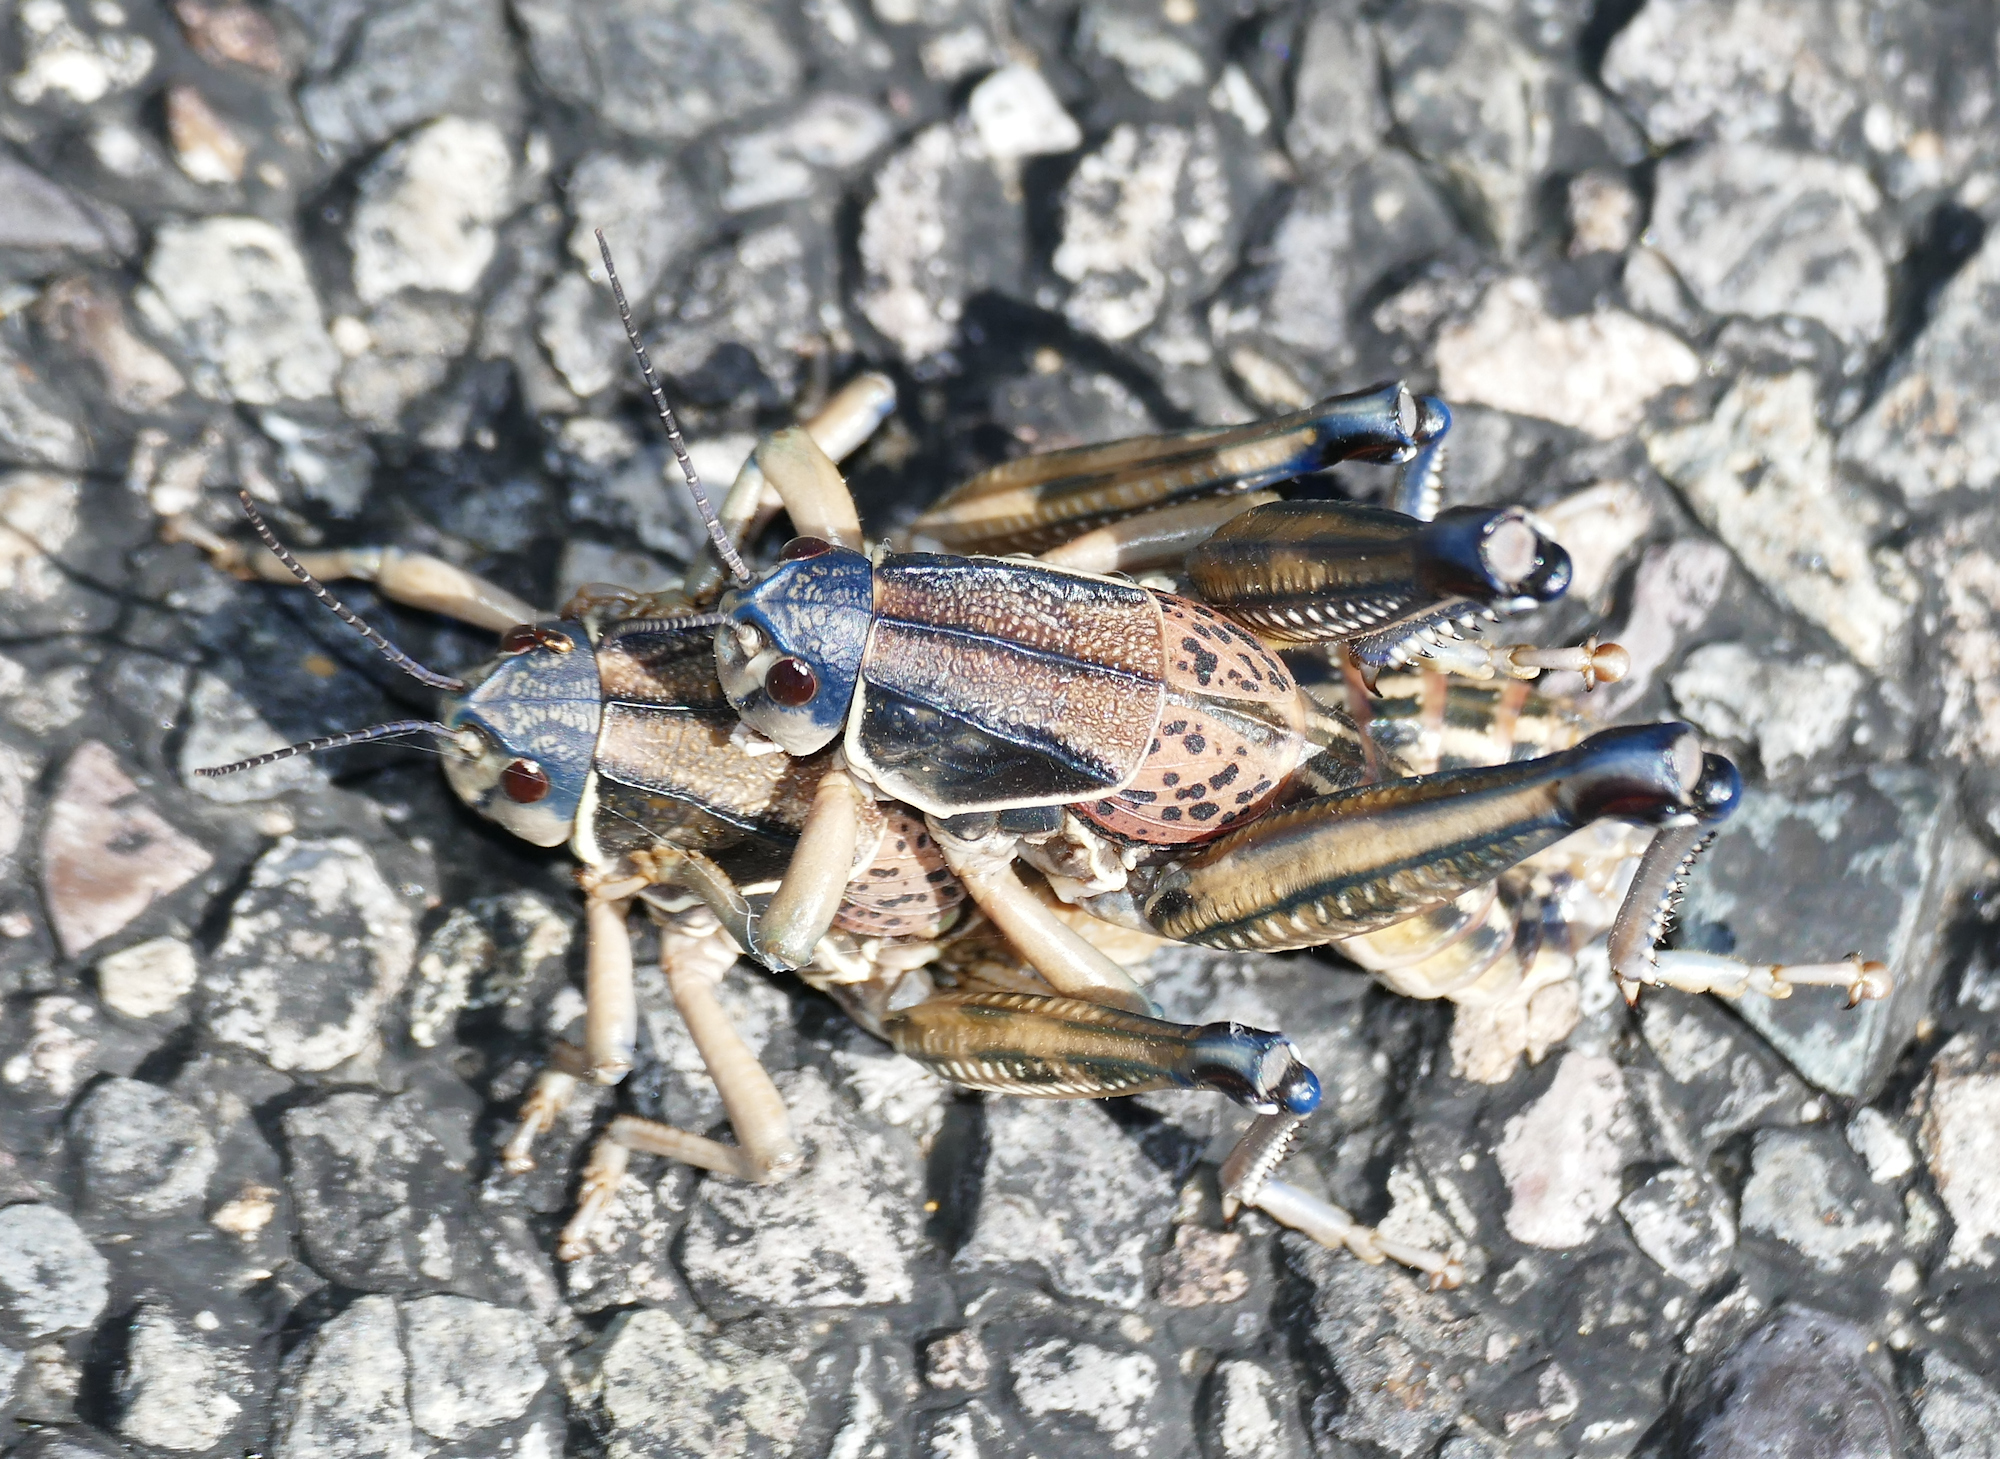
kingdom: Animalia
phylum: Arthropoda
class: Insecta
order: Orthoptera
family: Romaleidae
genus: Brachystola
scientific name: Brachystola magna
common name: Plains lubber grasshopper
